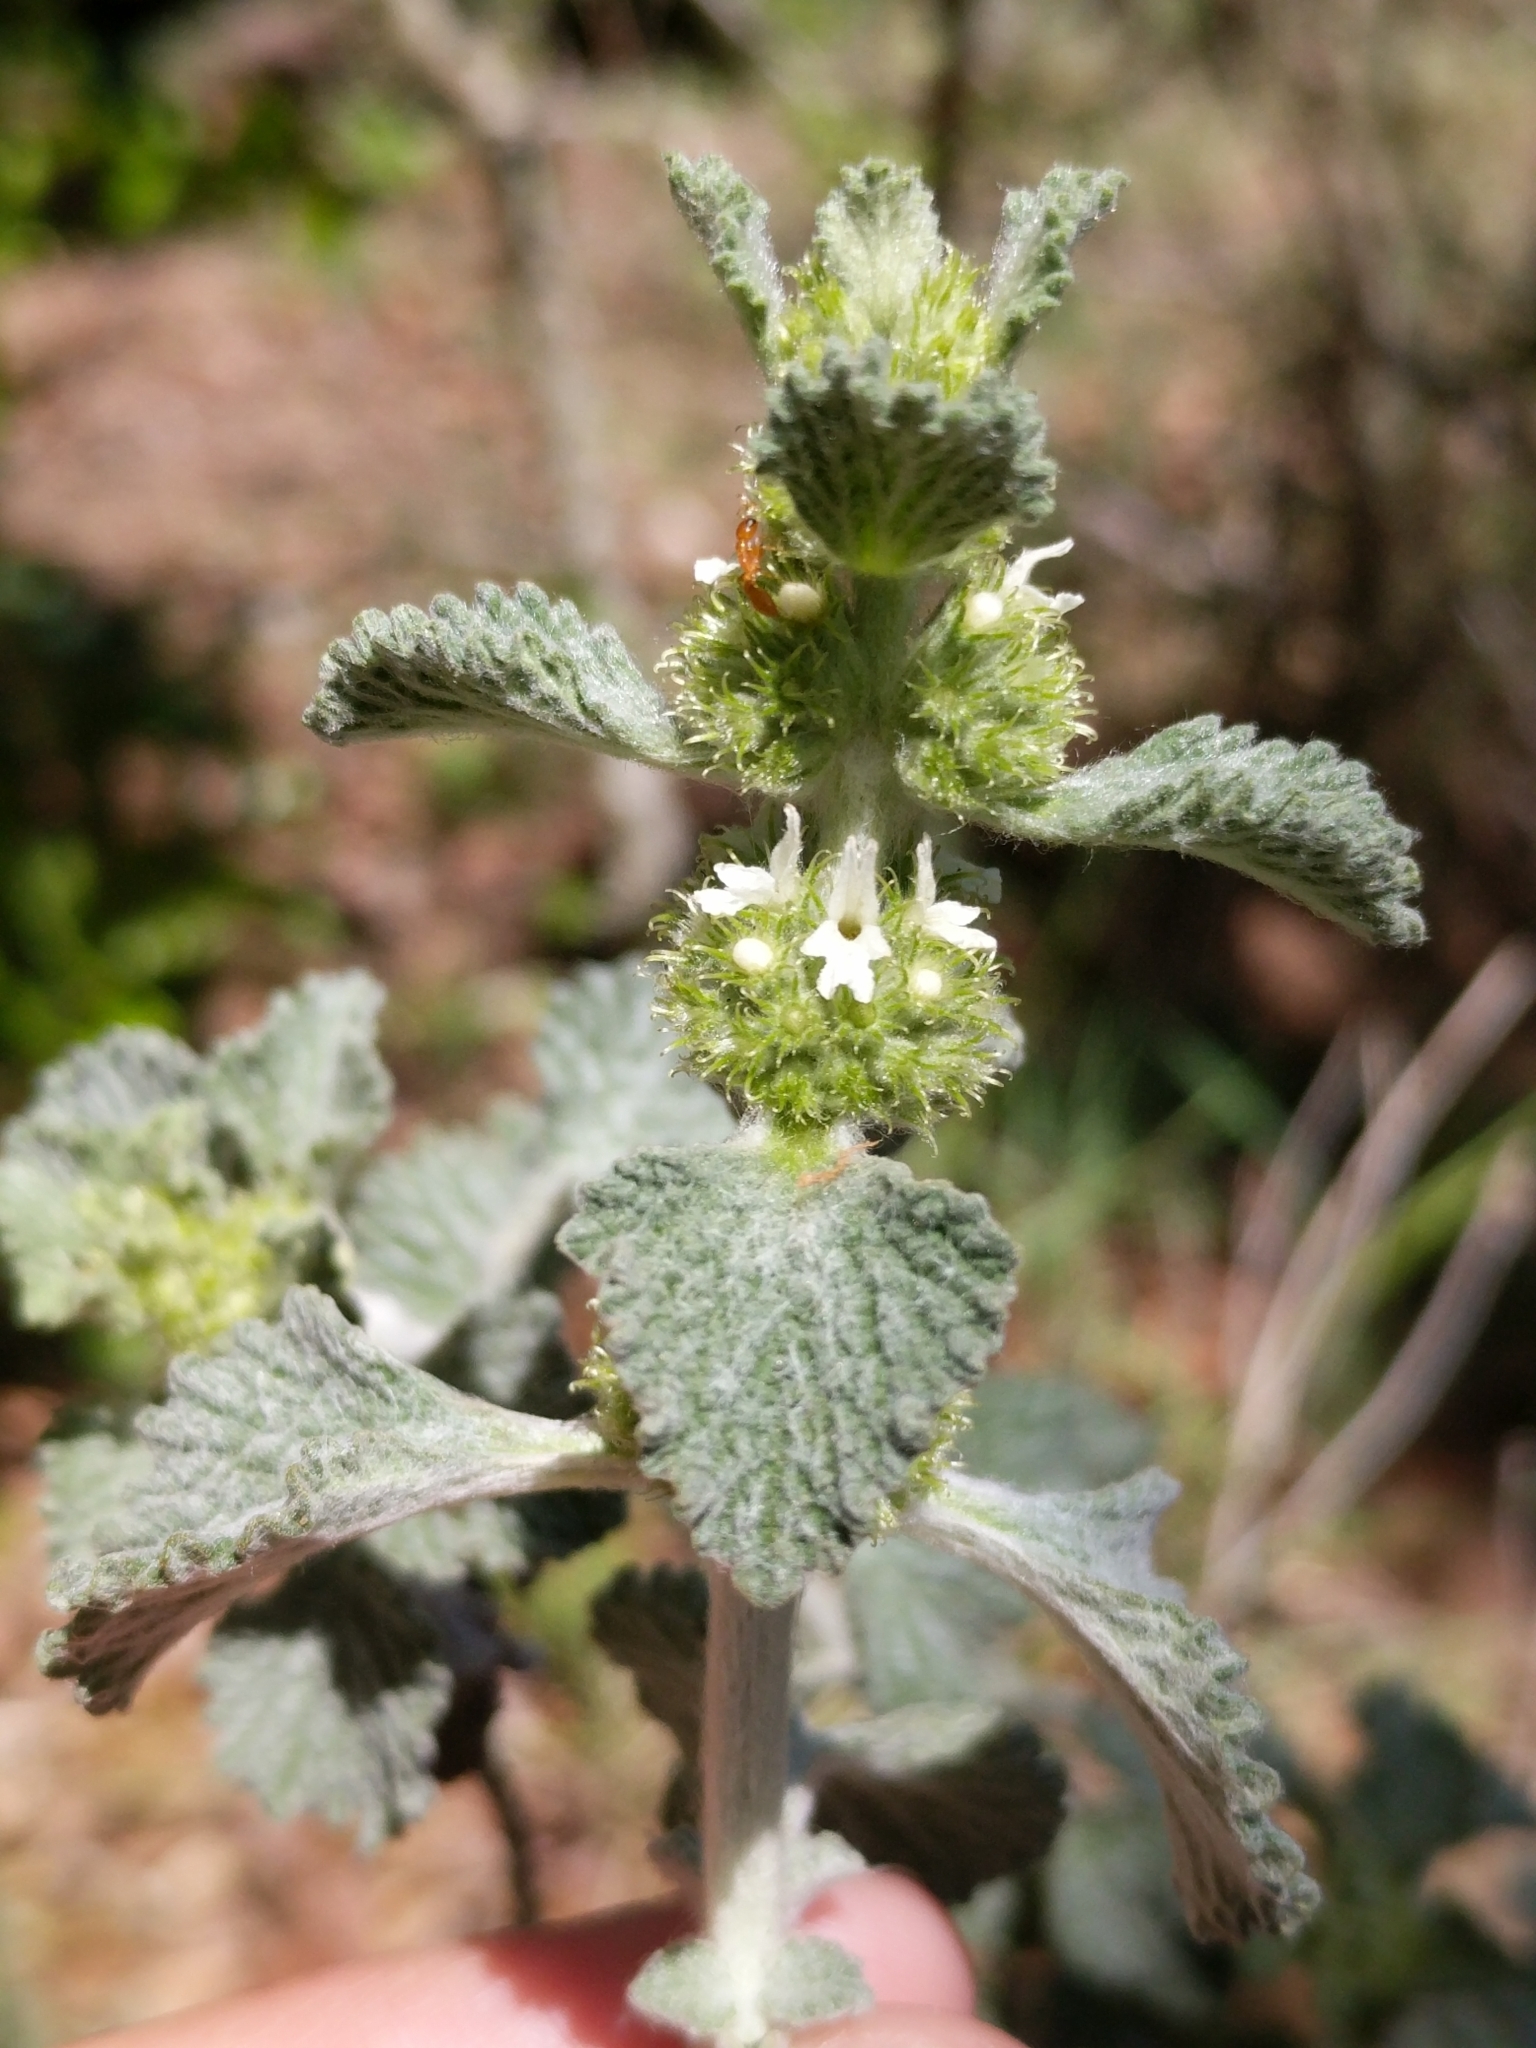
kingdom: Plantae
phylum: Tracheophyta
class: Magnoliopsida
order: Lamiales
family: Lamiaceae
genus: Marrubium
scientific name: Marrubium vulgare
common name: Horehound
